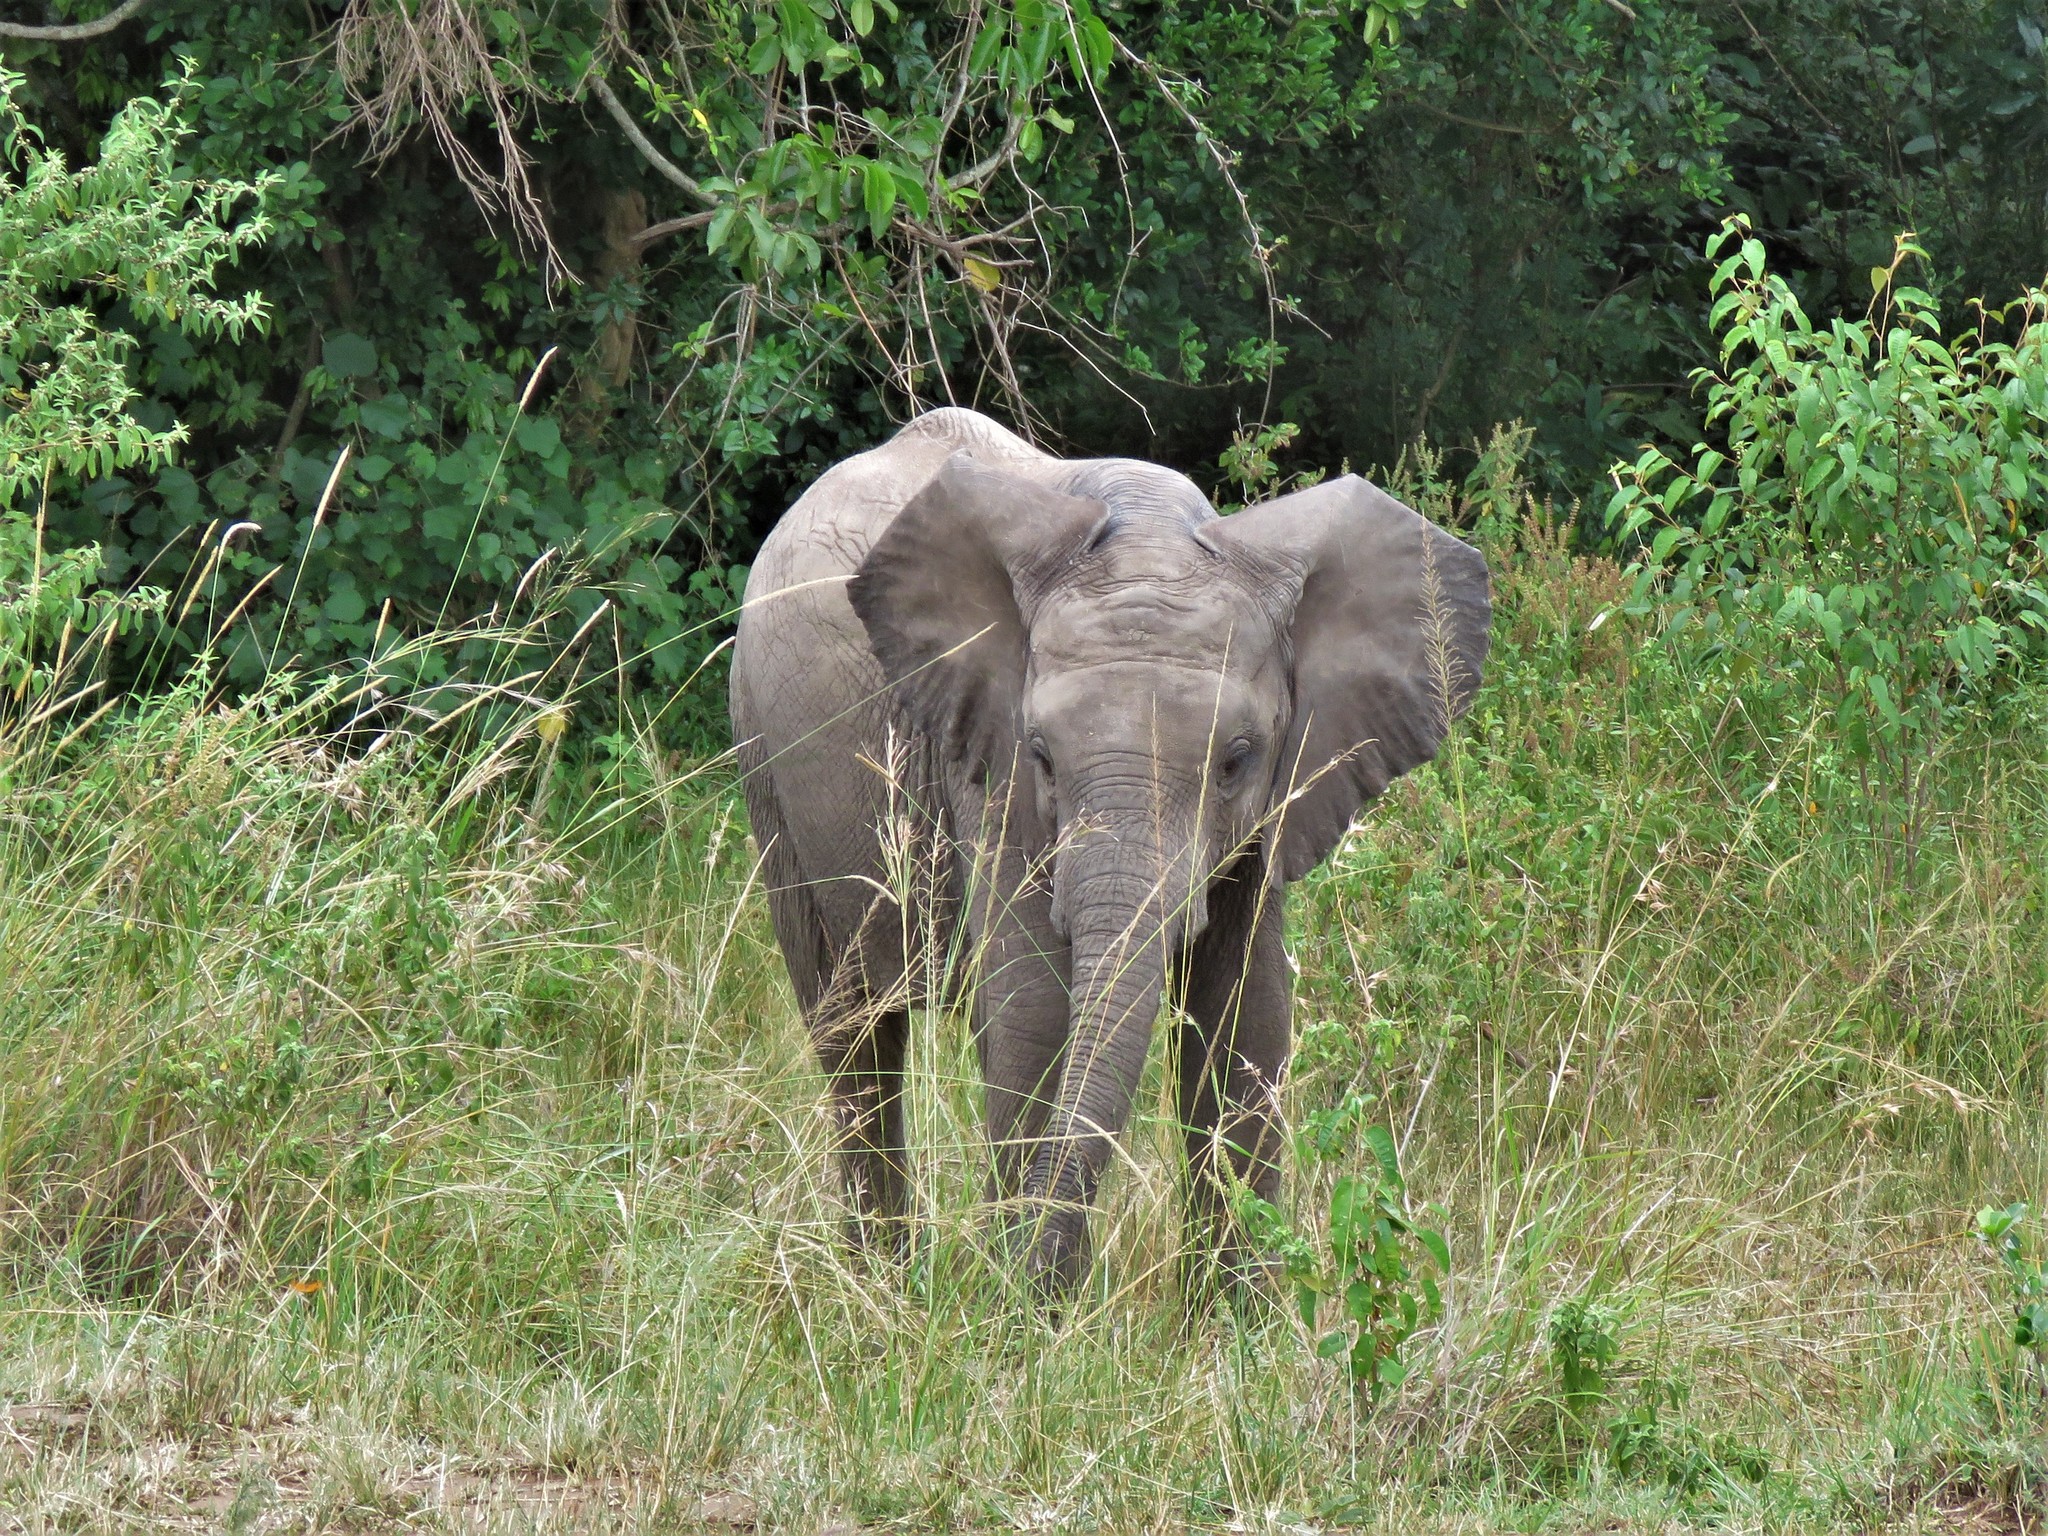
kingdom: Animalia
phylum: Chordata
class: Mammalia
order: Proboscidea
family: Elephantidae
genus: Loxodonta
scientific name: Loxodonta africana
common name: African elephant
